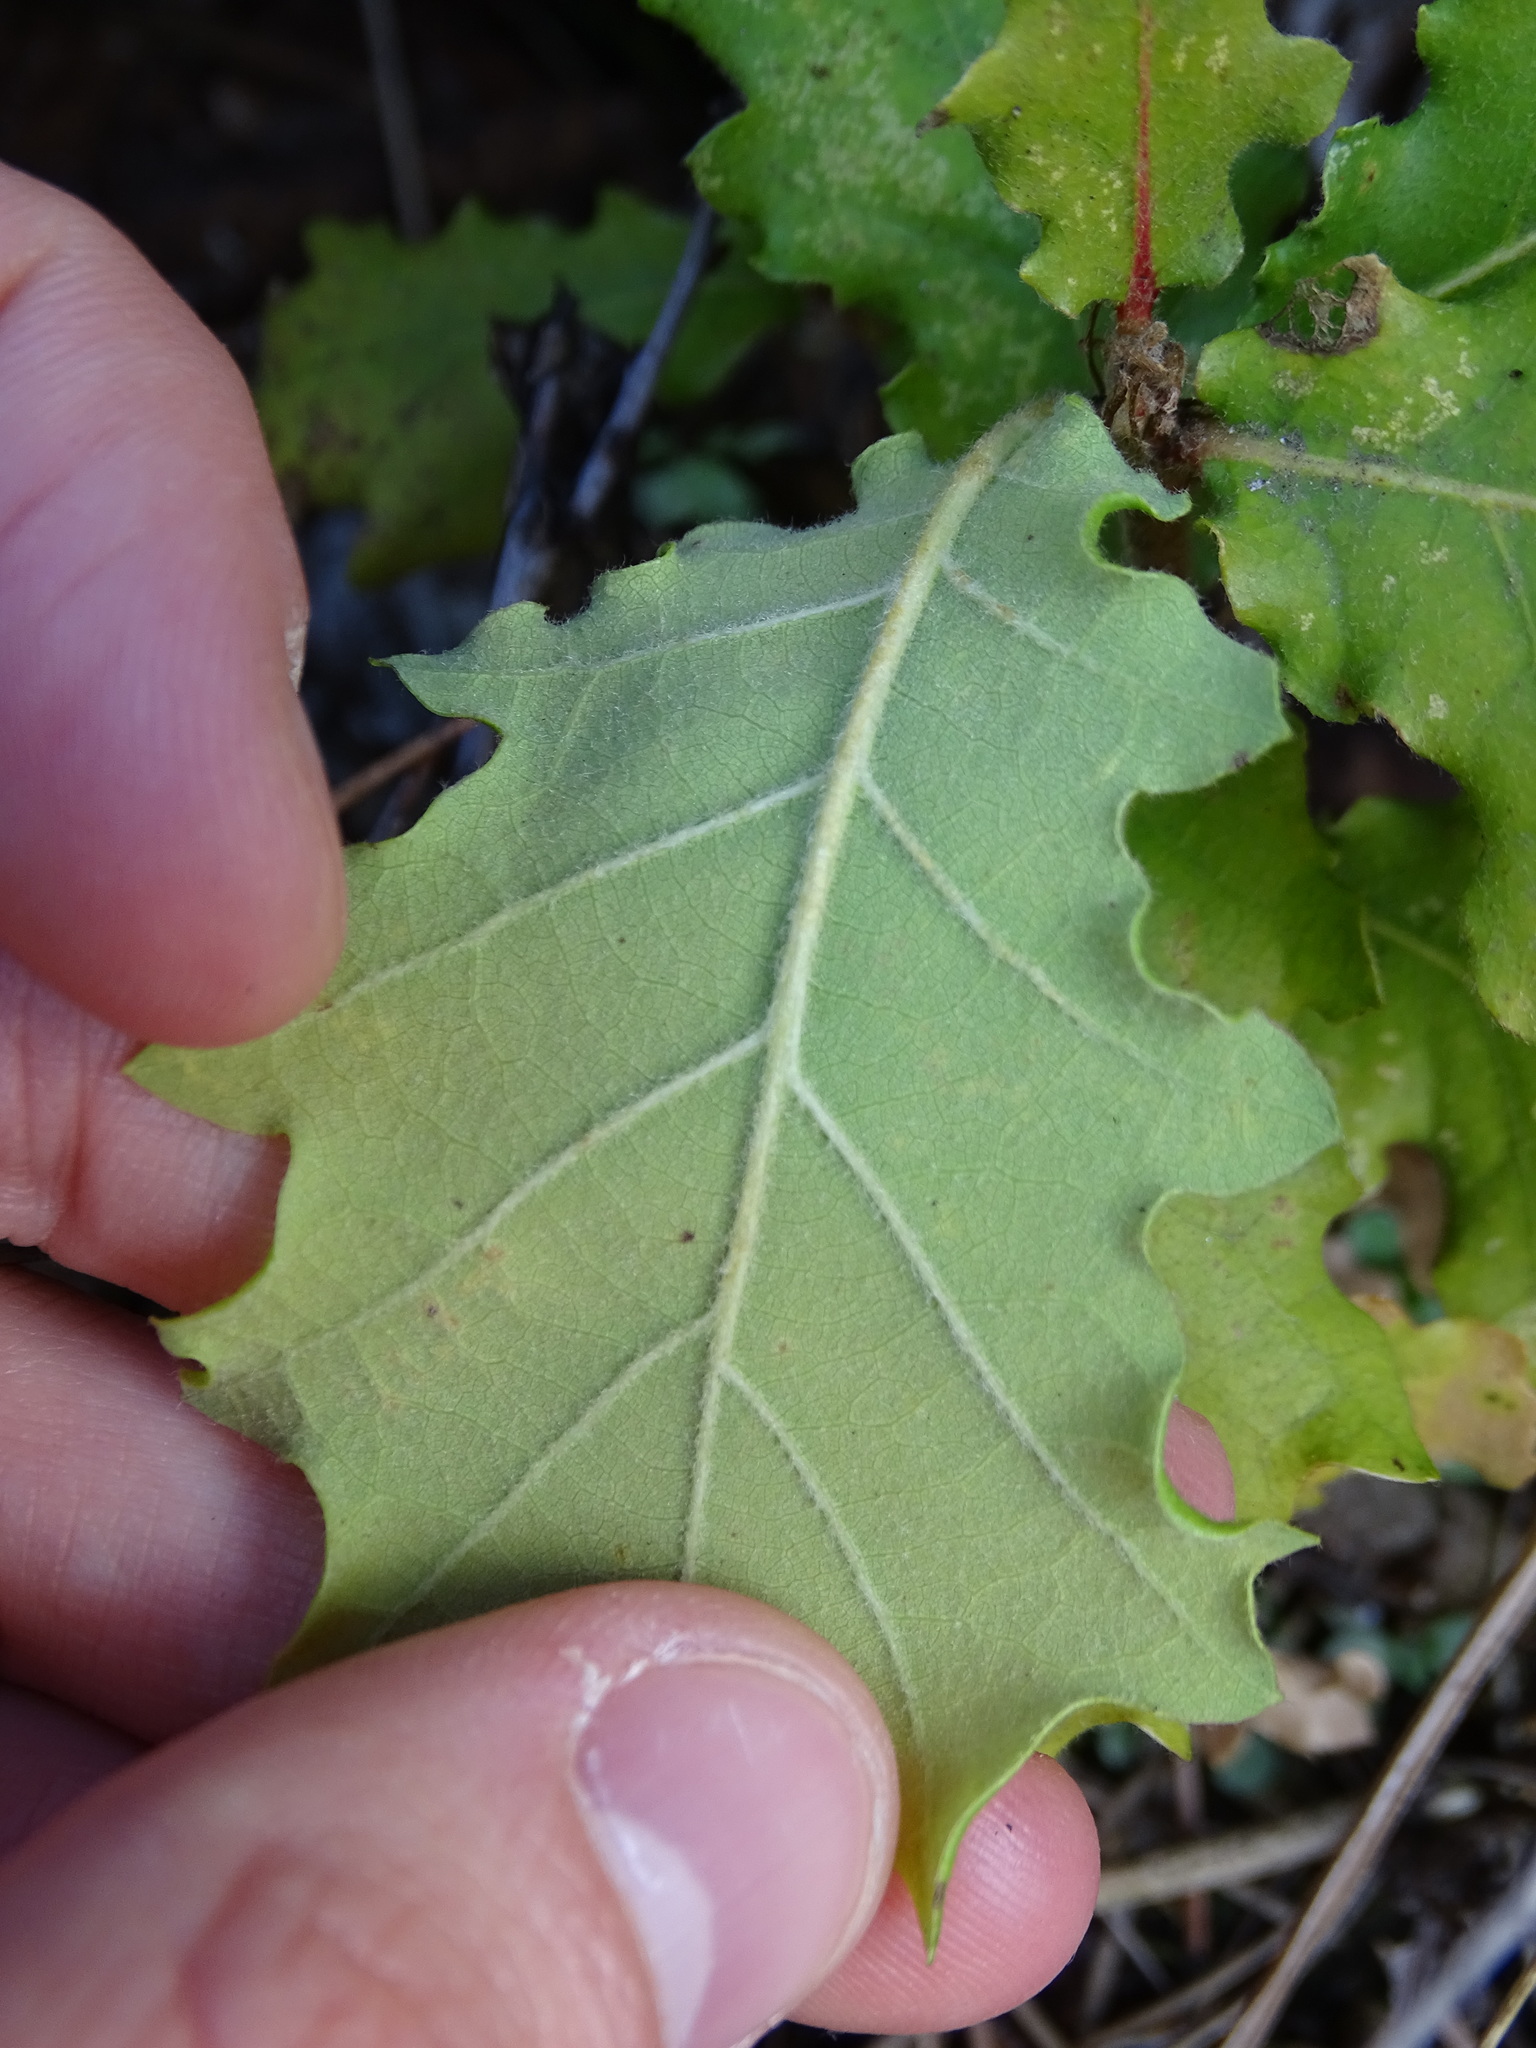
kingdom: Plantae
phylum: Tracheophyta
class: Magnoliopsida
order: Fagales
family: Fagaceae
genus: Quercus
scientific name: Quercus pubescens
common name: Downy oak
